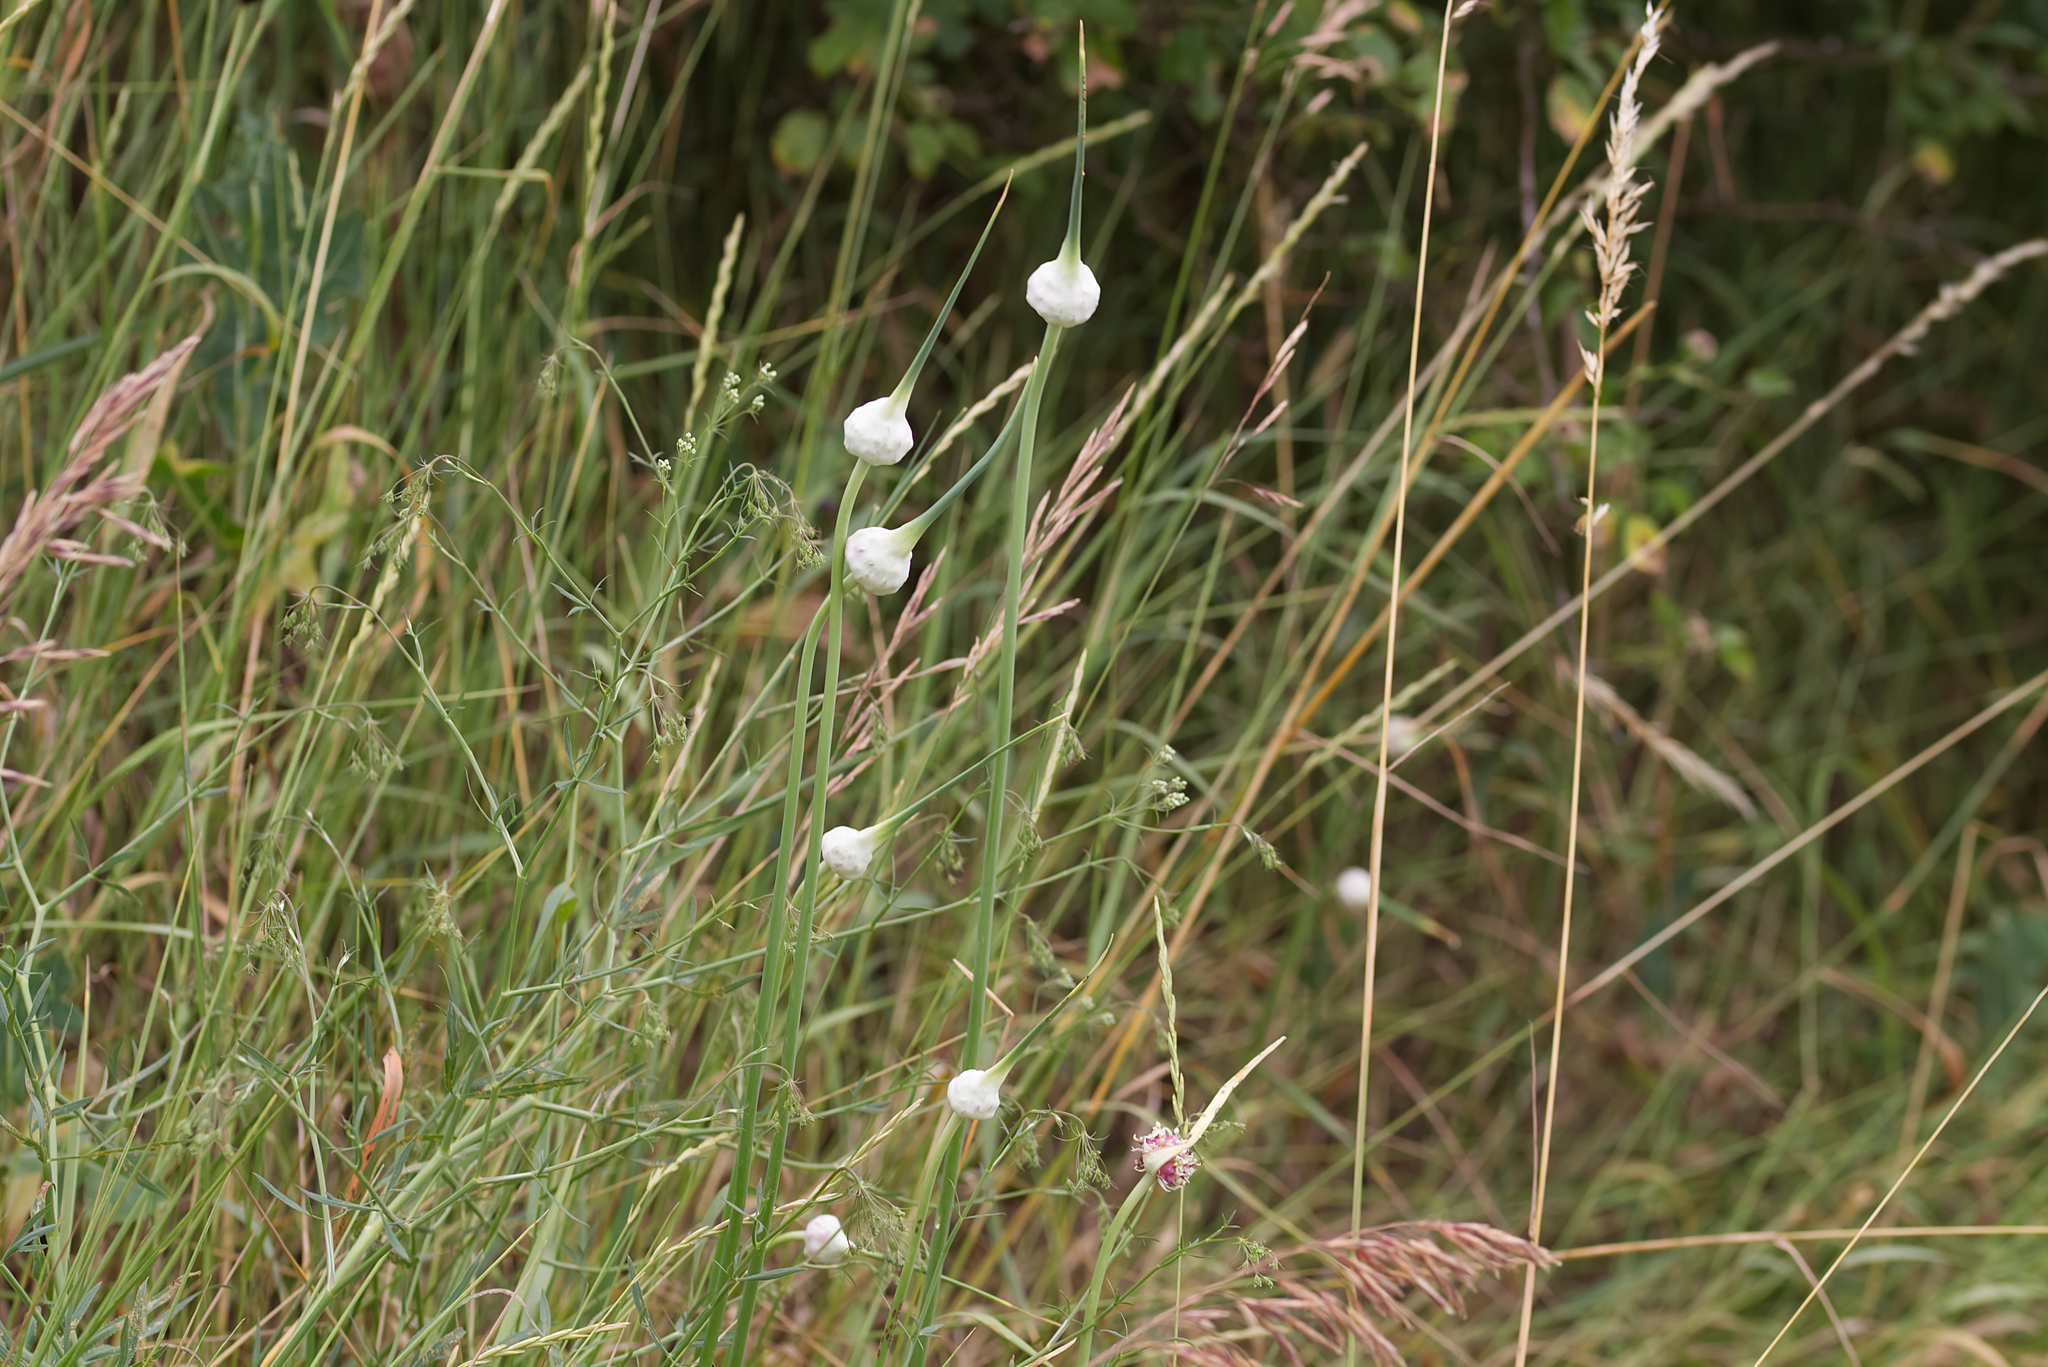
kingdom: Plantae
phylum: Tracheophyta
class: Liliopsida
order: Asparagales
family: Amaryllidaceae
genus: Allium
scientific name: Allium sativum
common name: Garlic
